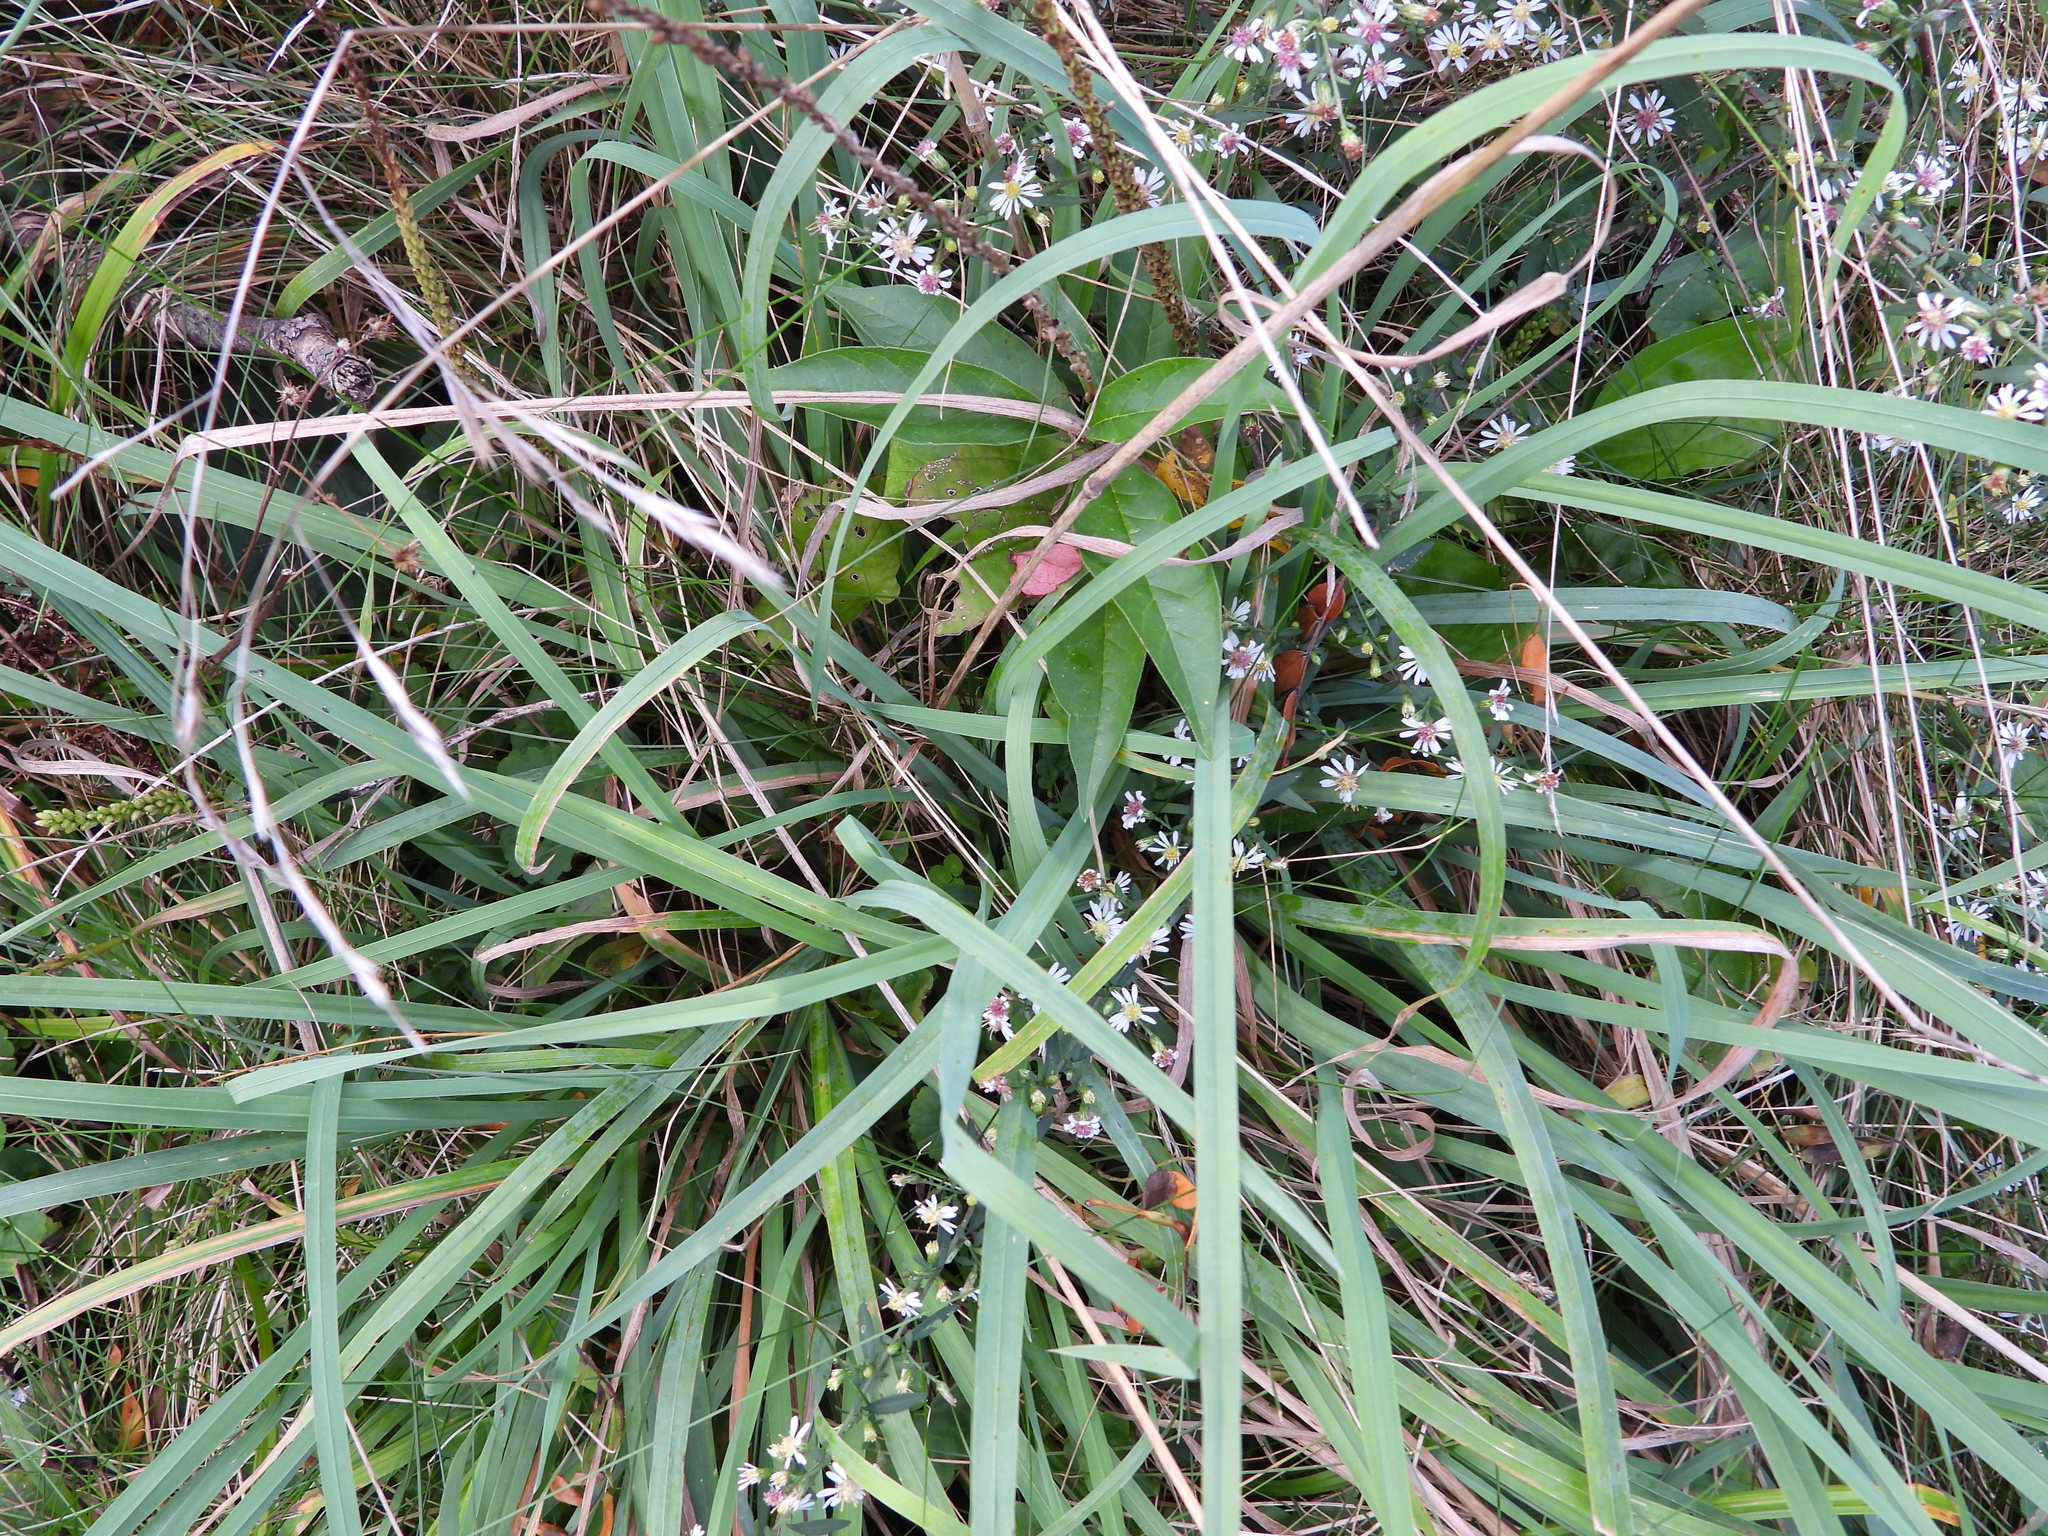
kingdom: Plantae
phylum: Tracheophyta
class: Liliopsida
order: Poales
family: Poaceae
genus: Dactylis
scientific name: Dactylis glomerata
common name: Orchardgrass
